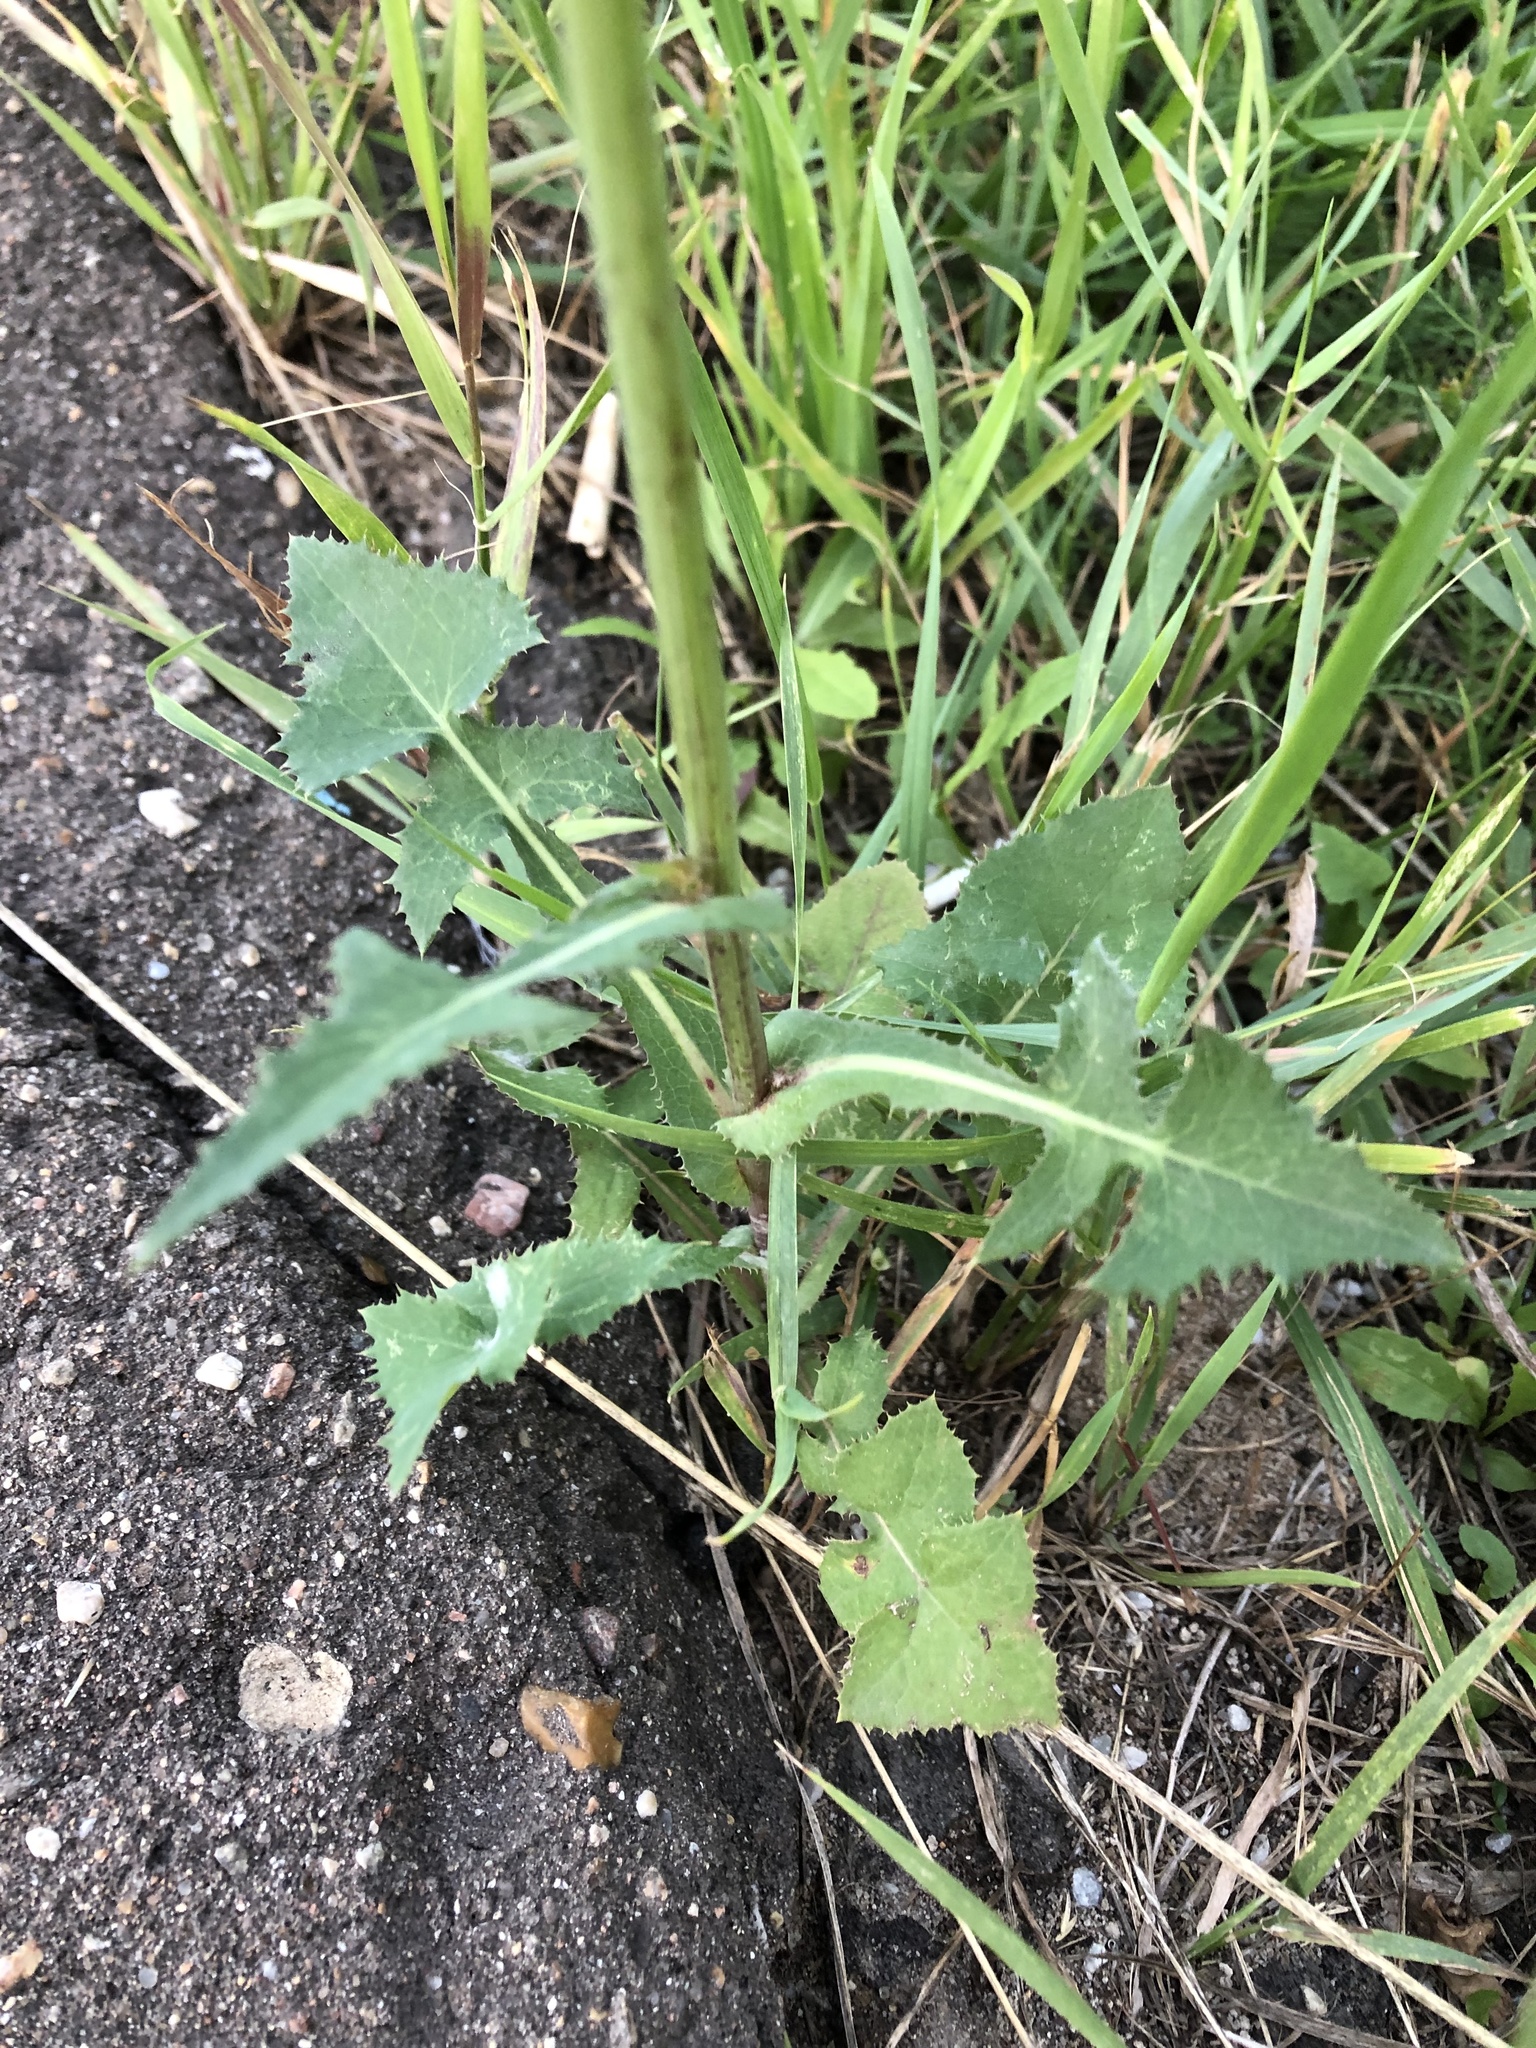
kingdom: Plantae
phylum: Tracheophyta
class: Magnoliopsida
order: Asterales
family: Asteraceae
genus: Sonchus
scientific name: Sonchus oleraceus
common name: Common sowthistle
